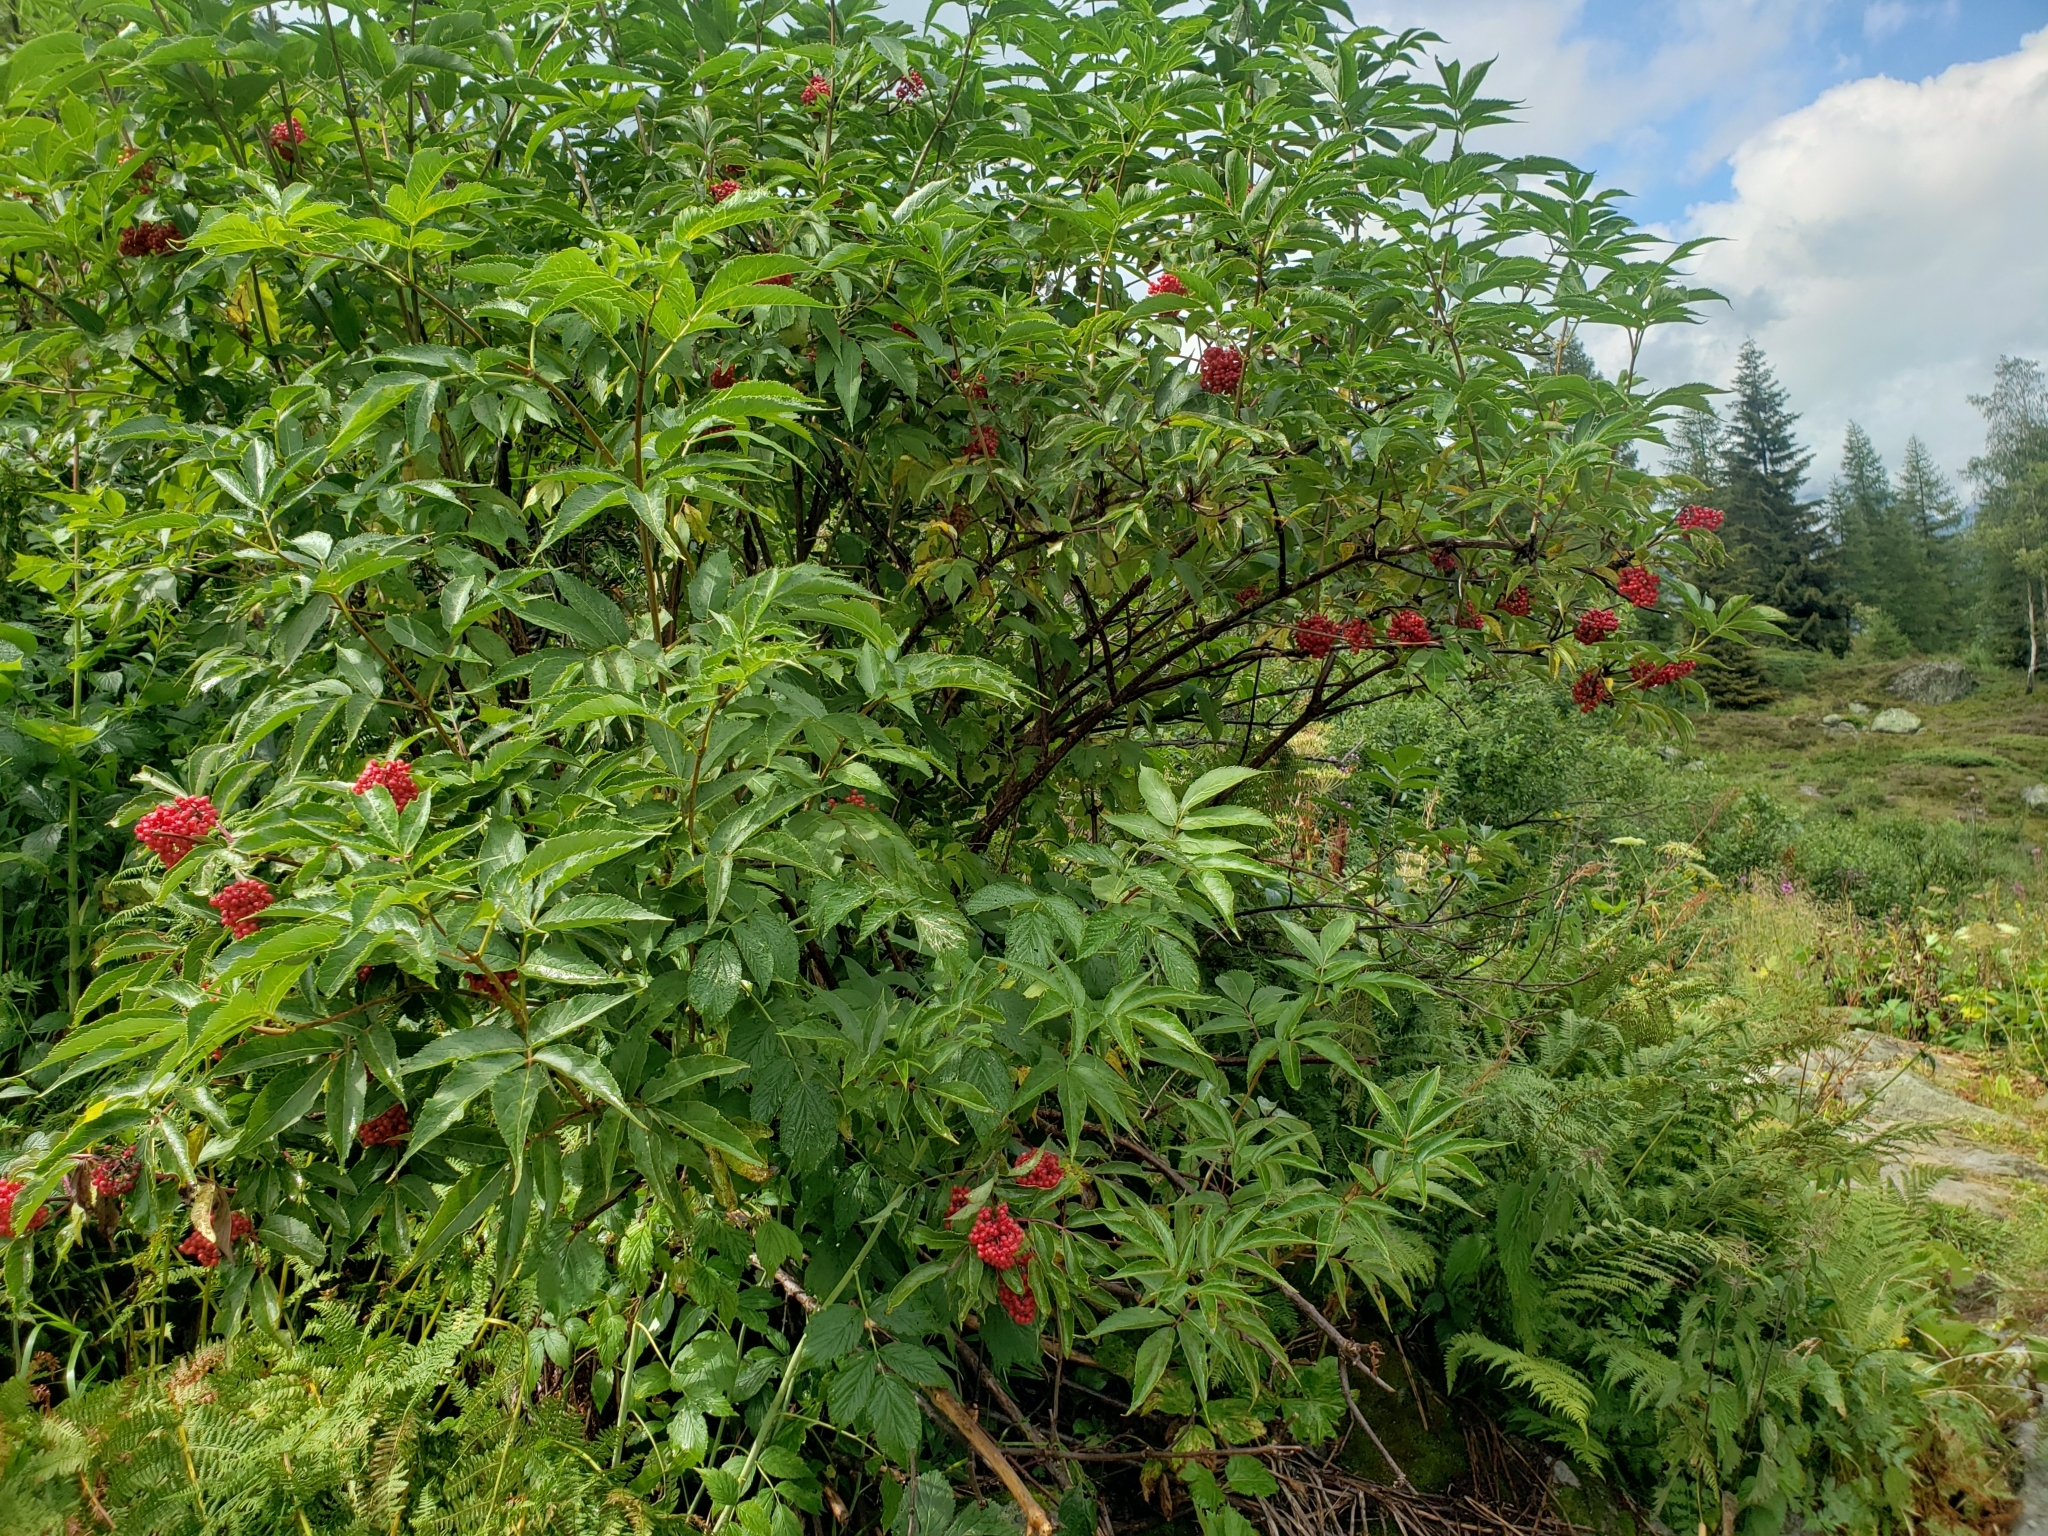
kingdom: Plantae
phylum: Tracheophyta
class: Magnoliopsida
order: Dipsacales
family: Viburnaceae
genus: Sambucus
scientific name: Sambucus racemosa
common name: Red-berried elder
